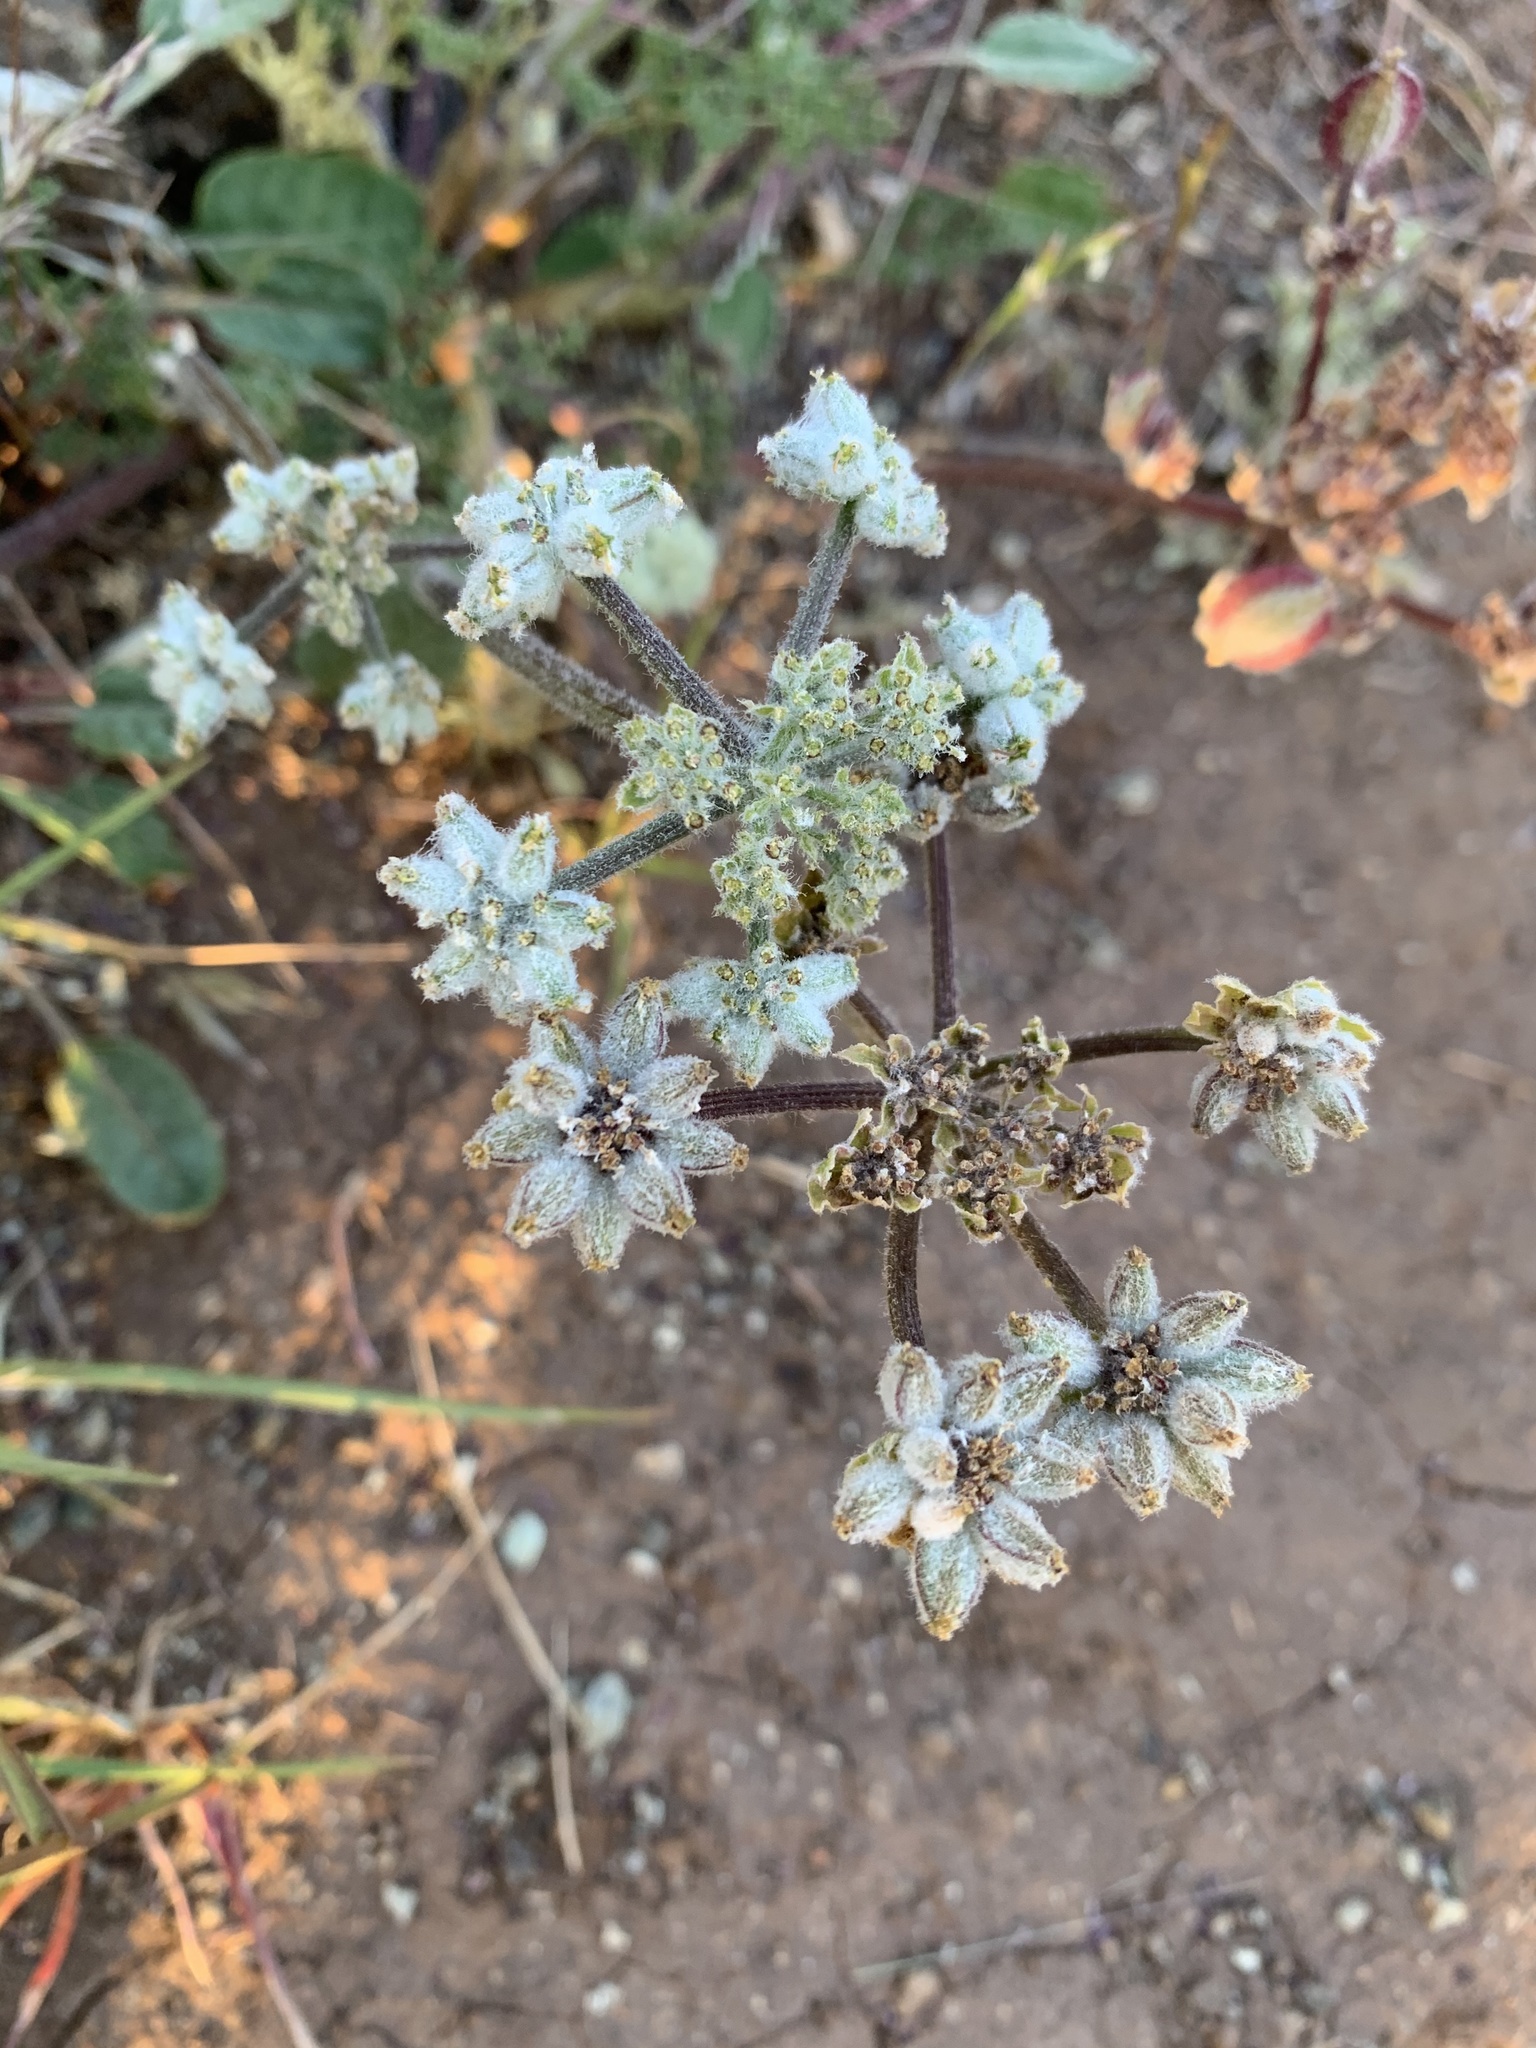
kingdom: Plantae
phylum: Tracheophyta
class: Magnoliopsida
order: Apiales
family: Apiaceae
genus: Lomatium
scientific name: Lomatium dasycarpum
